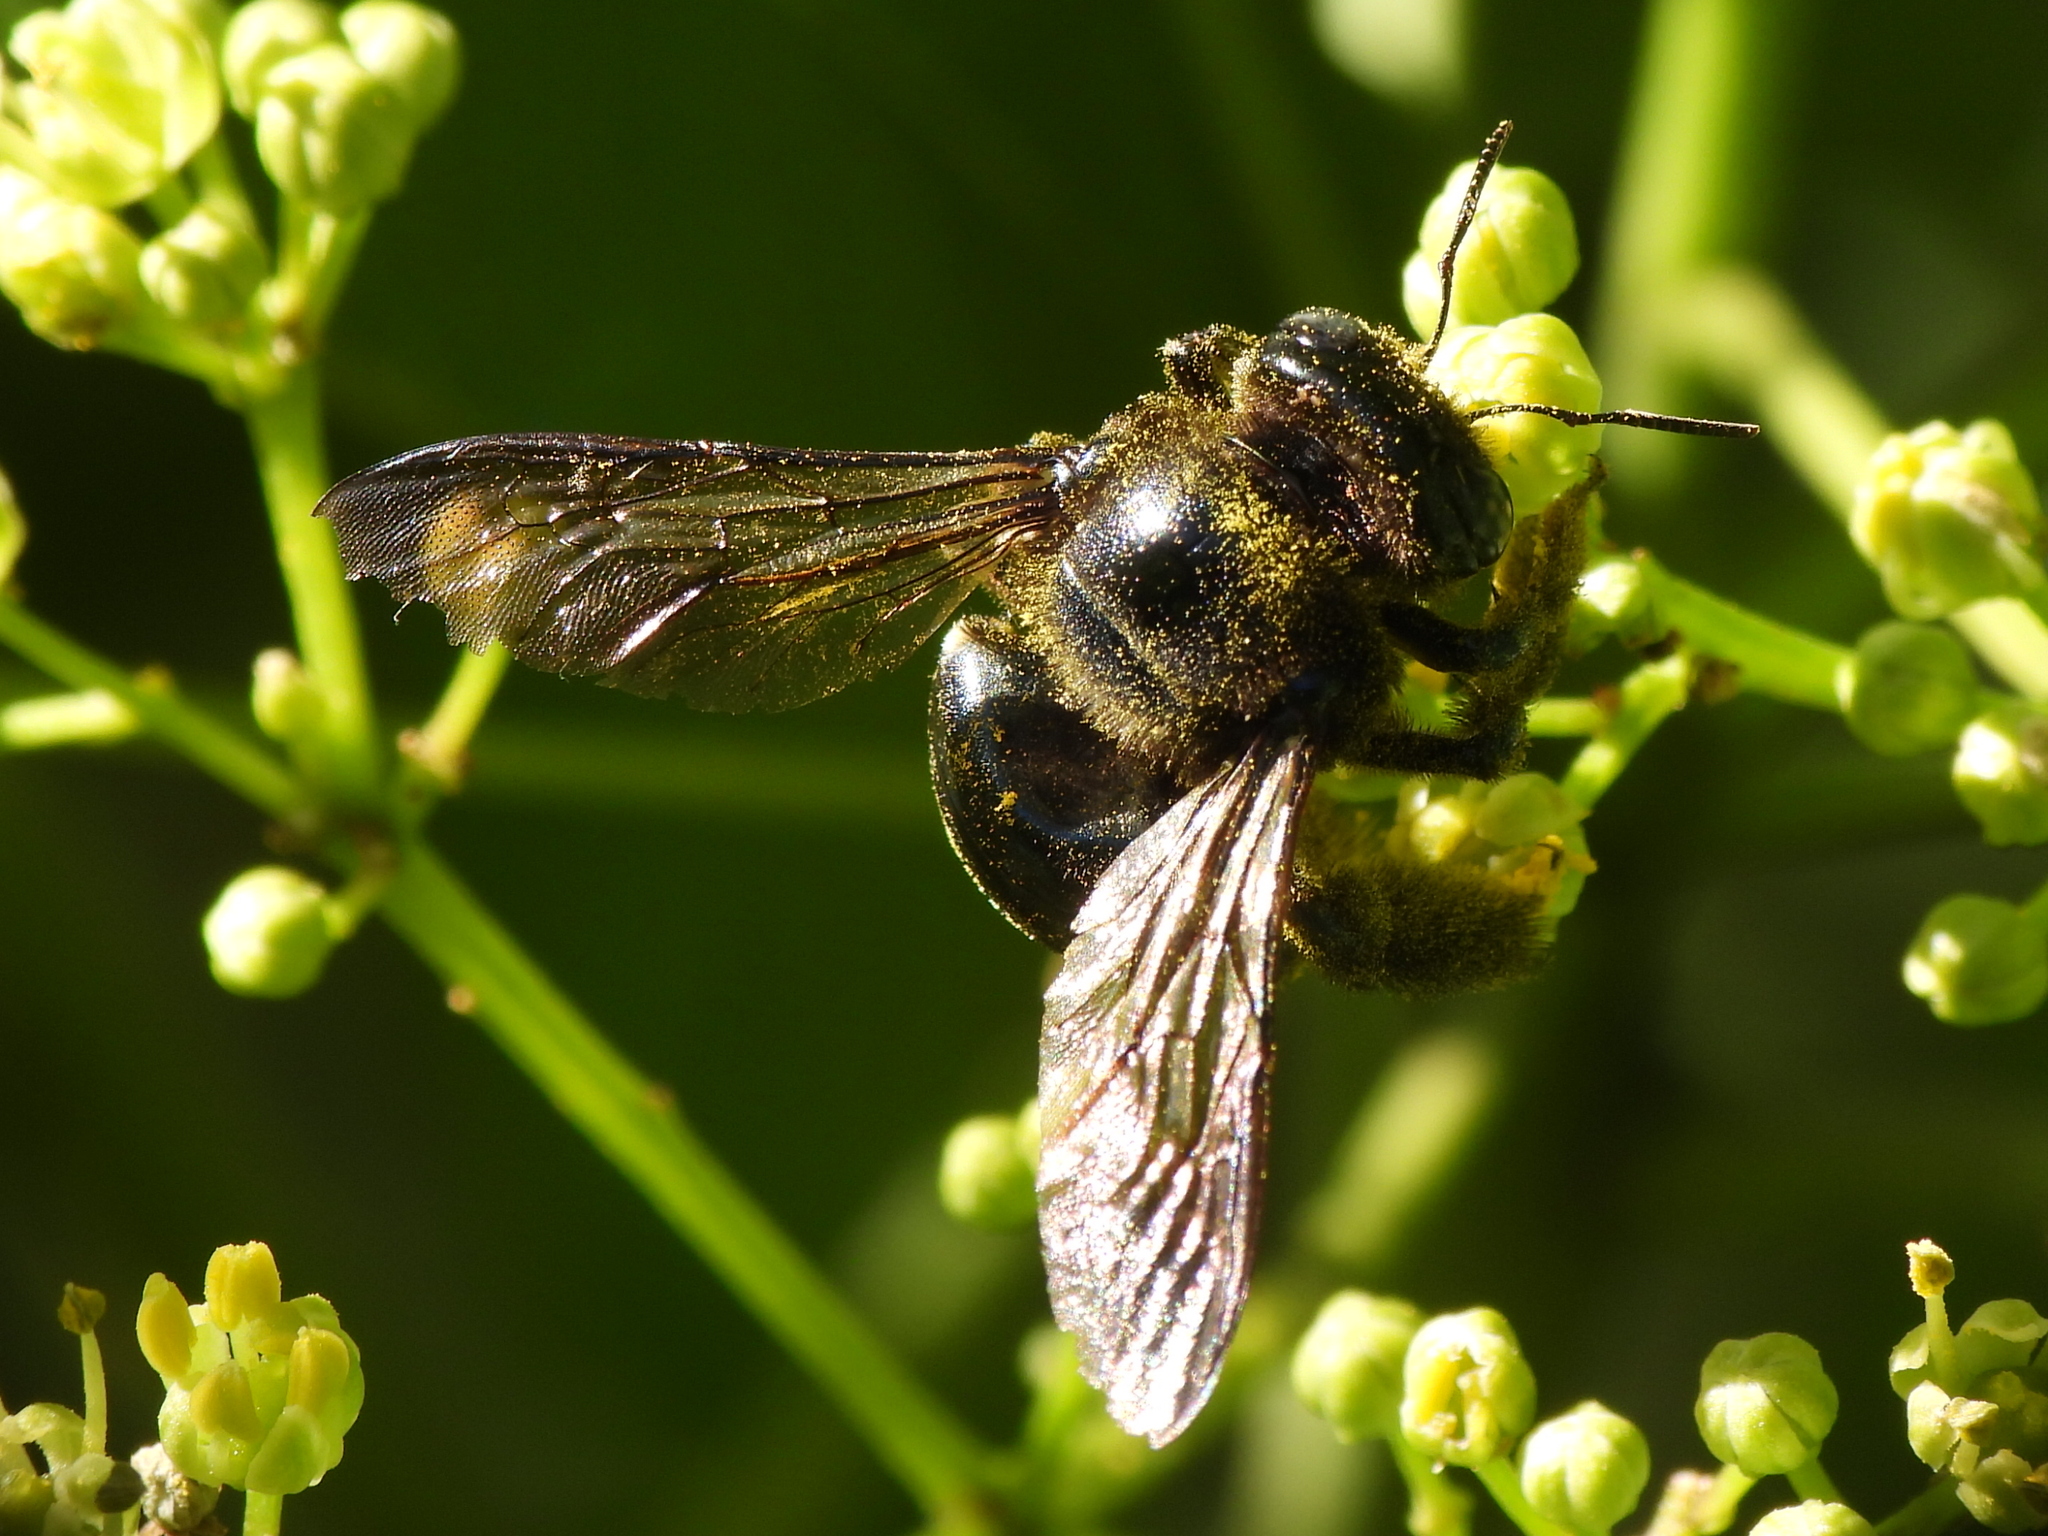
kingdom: Animalia
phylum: Arthropoda
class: Insecta
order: Hymenoptera
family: Apidae
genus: Xylocopa
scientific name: Xylocopa micans
